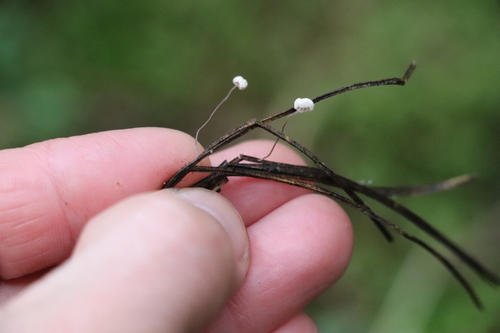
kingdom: Fungi
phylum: Basidiomycota
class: Agaricomycetes
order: Agaricales
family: Marasmiaceae
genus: Marasmius
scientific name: Marasmius minutissimus
